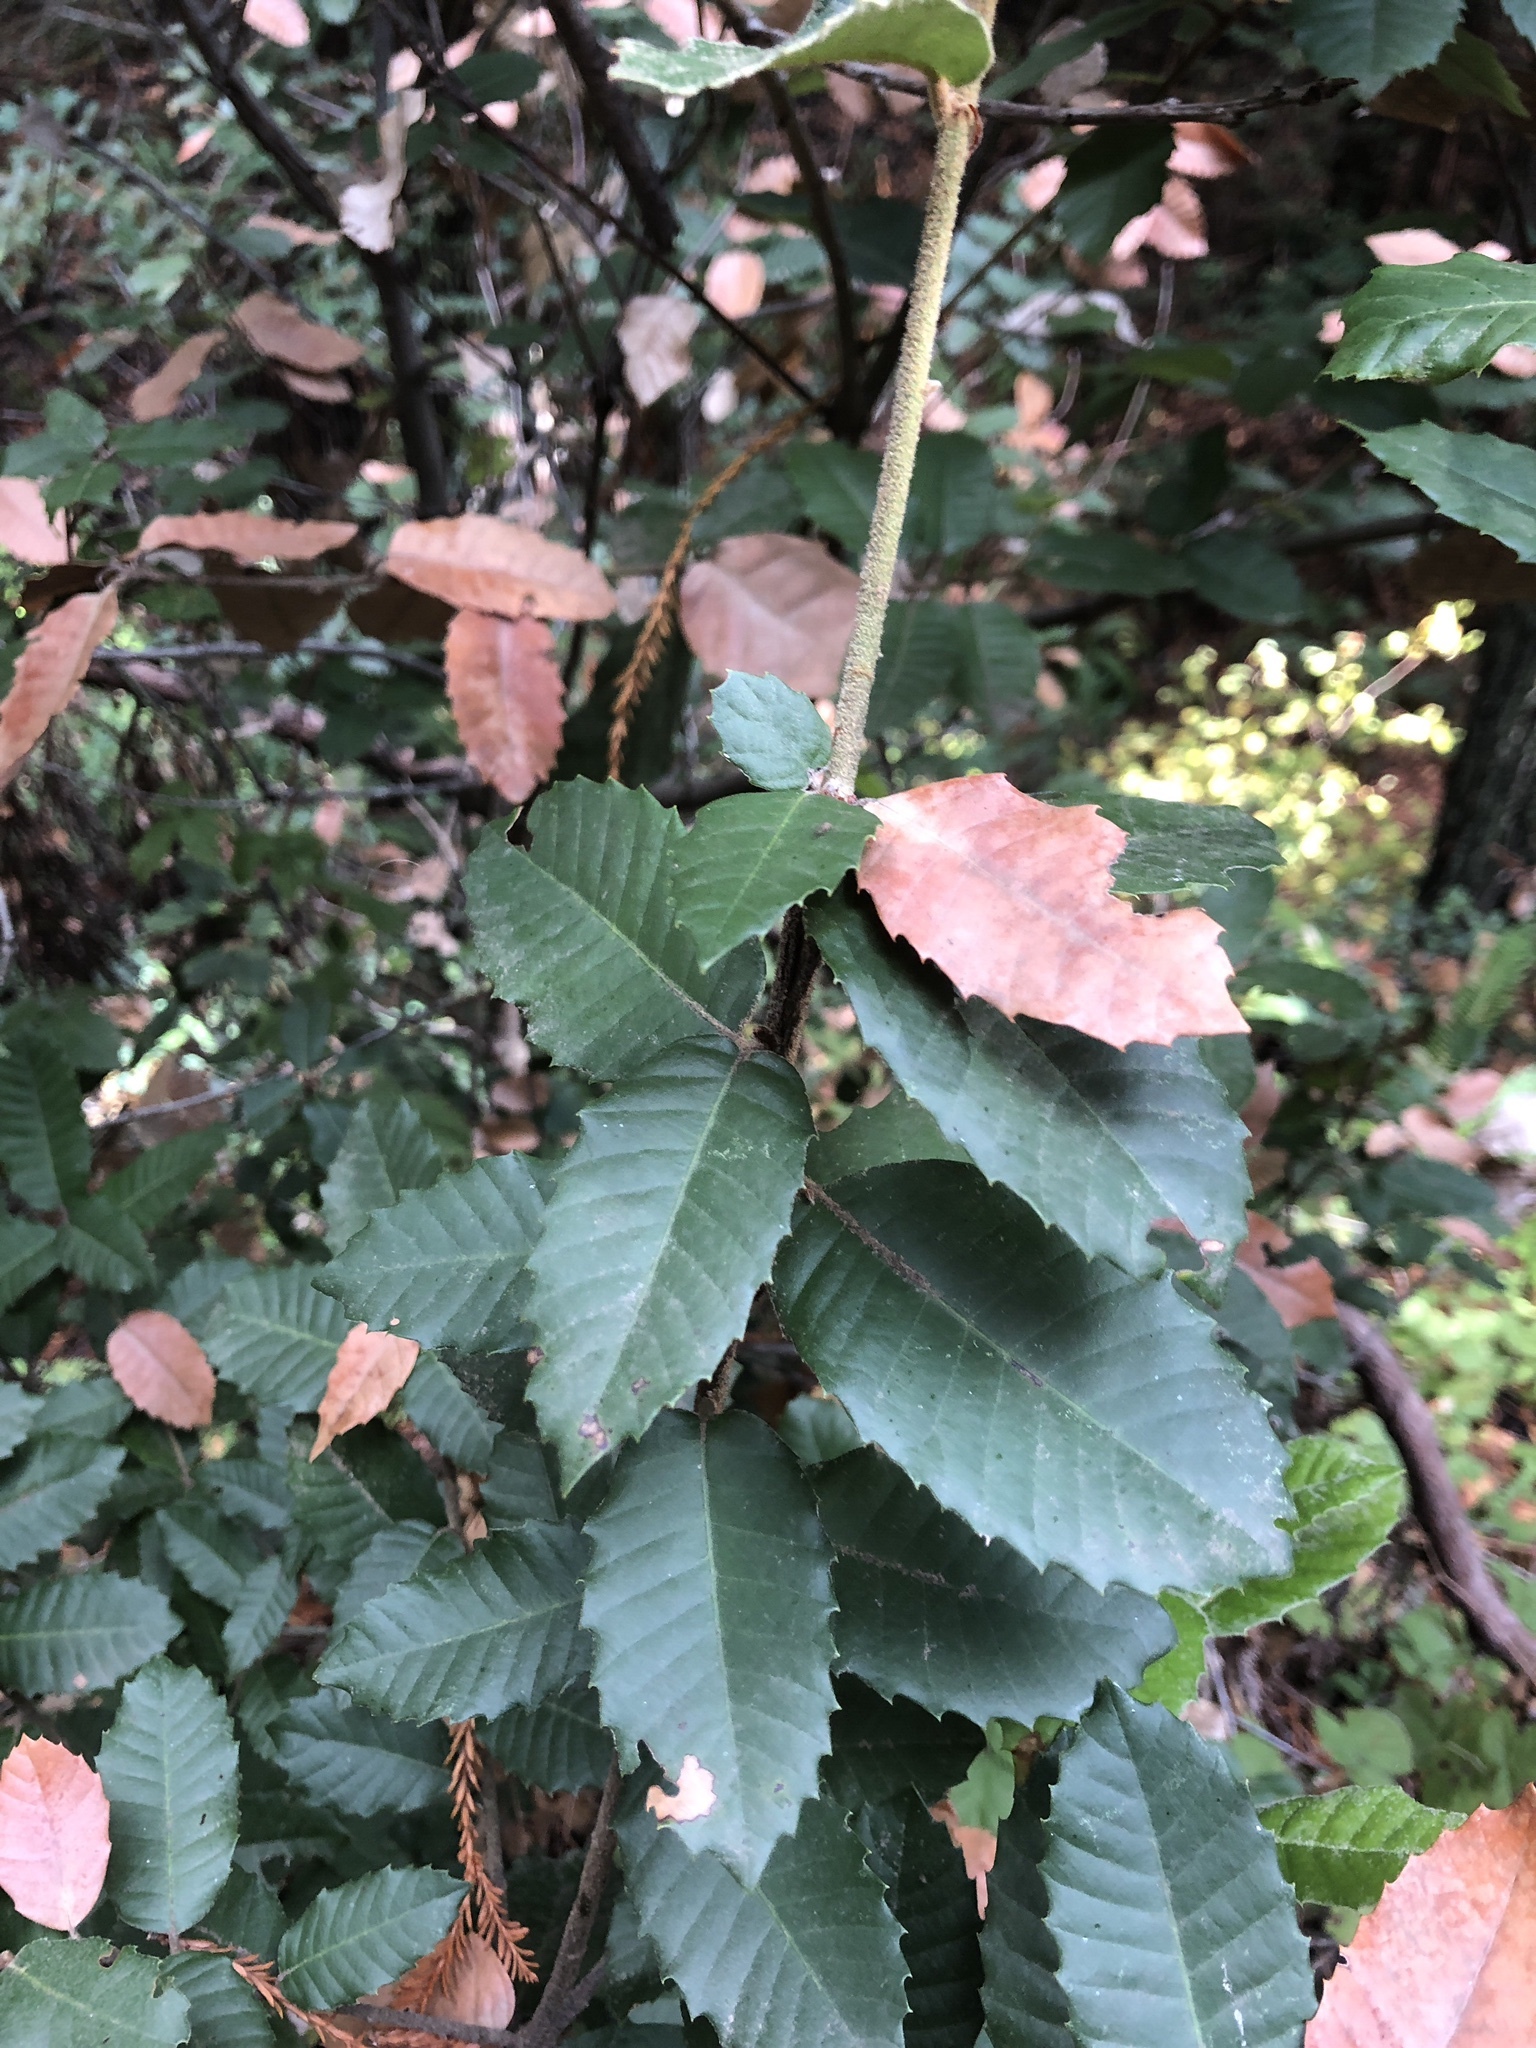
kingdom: Plantae
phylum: Tracheophyta
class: Magnoliopsida
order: Fagales
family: Fagaceae
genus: Notholithocarpus
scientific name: Notholithocarpus densiflorus
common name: Tan bark oak
